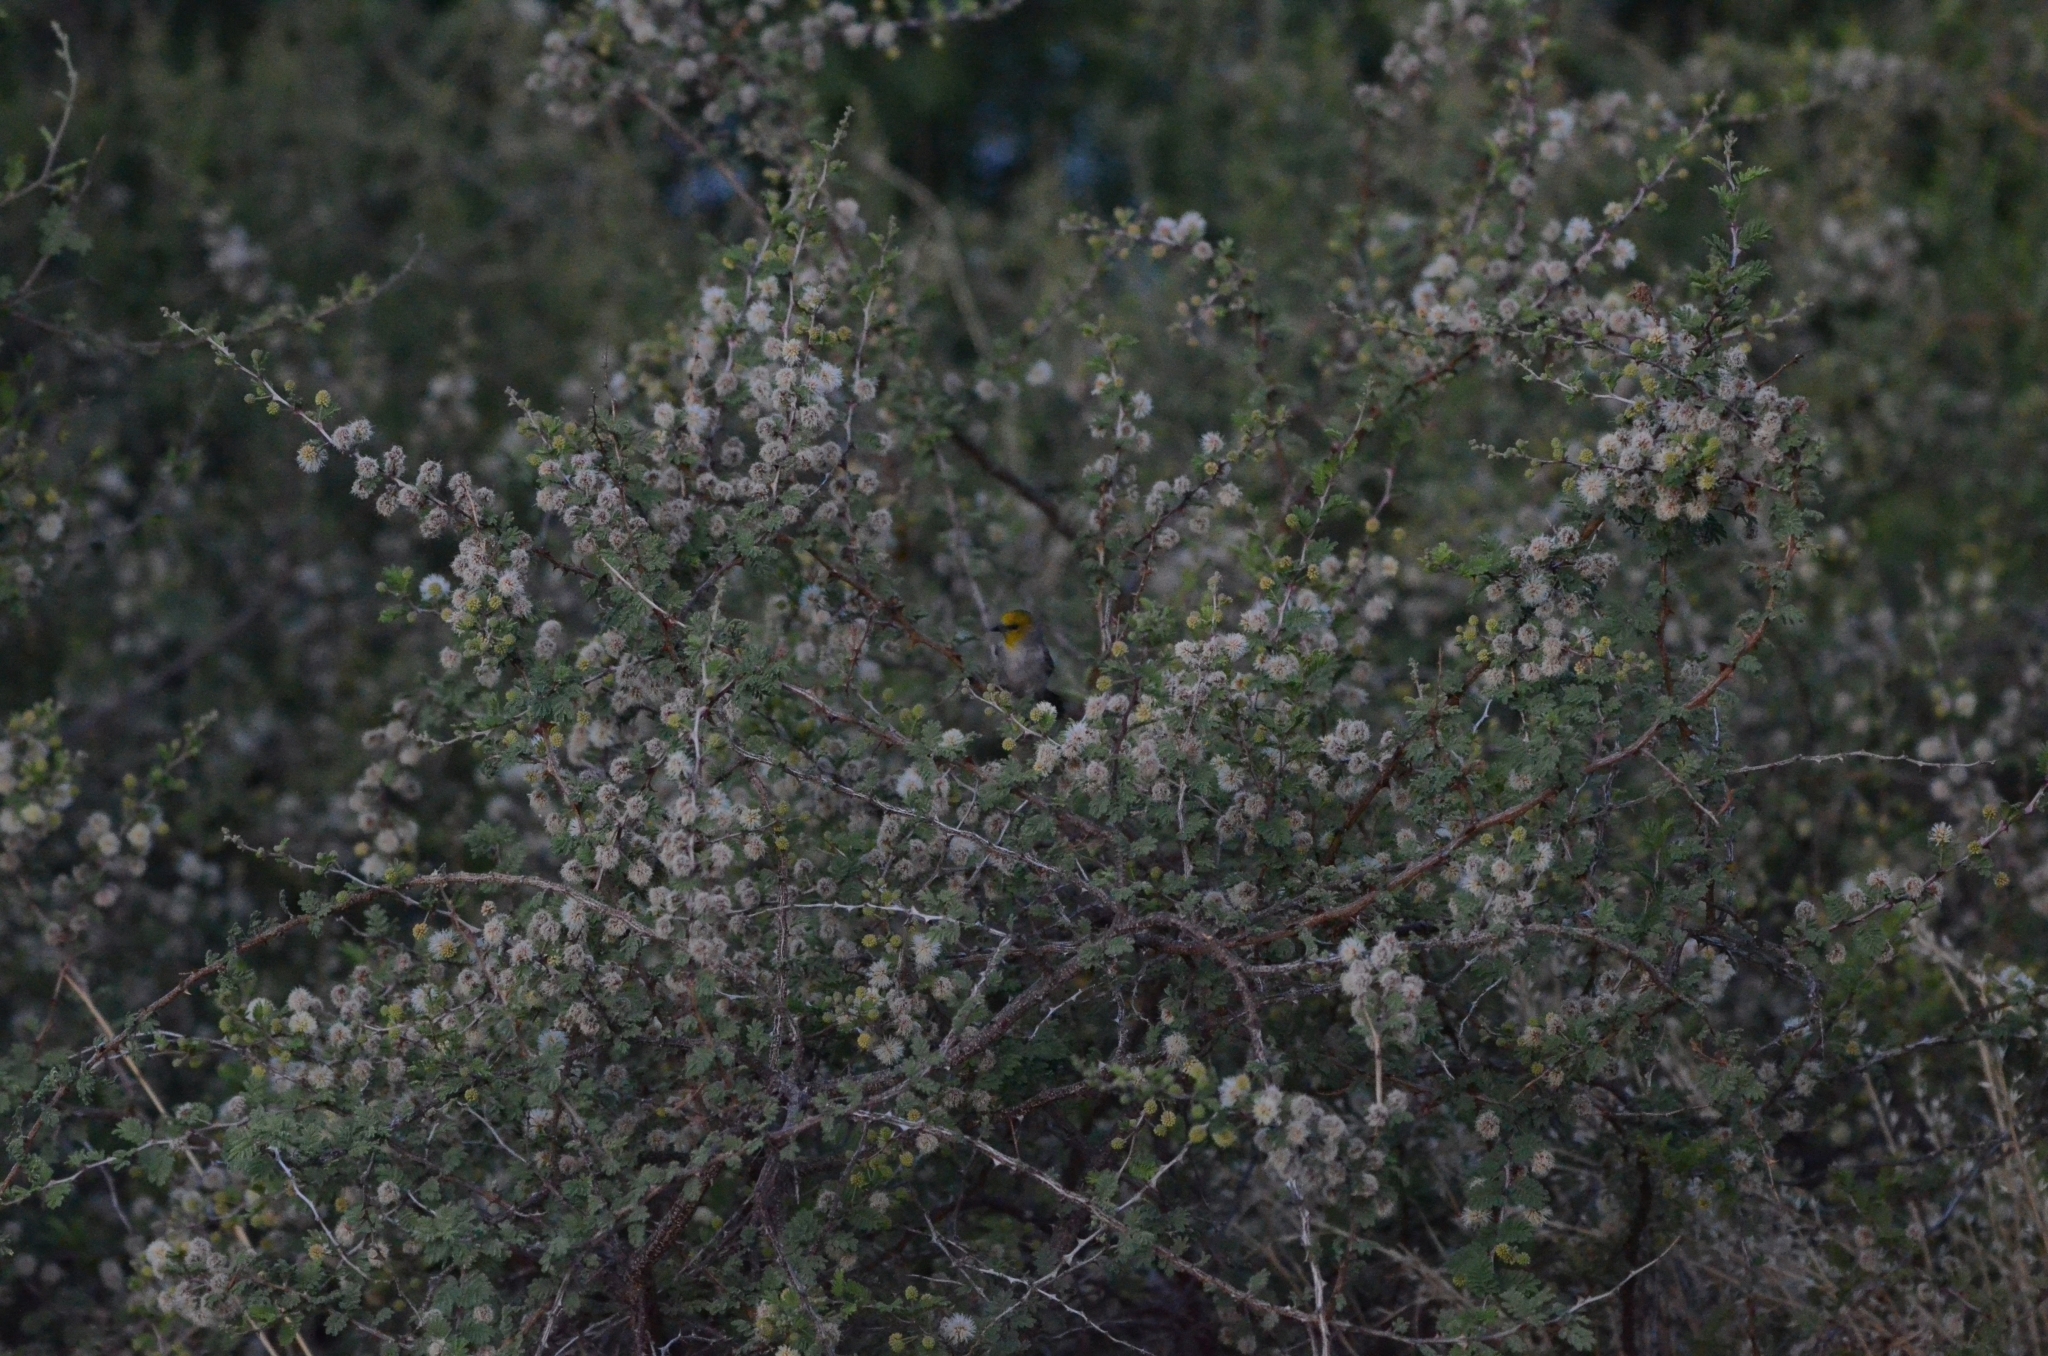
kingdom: Animalia
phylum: Chordata
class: Aves
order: Passeriformes
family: Remizidae
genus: Auriparus
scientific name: Auriparus flaviceps
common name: Verdin
